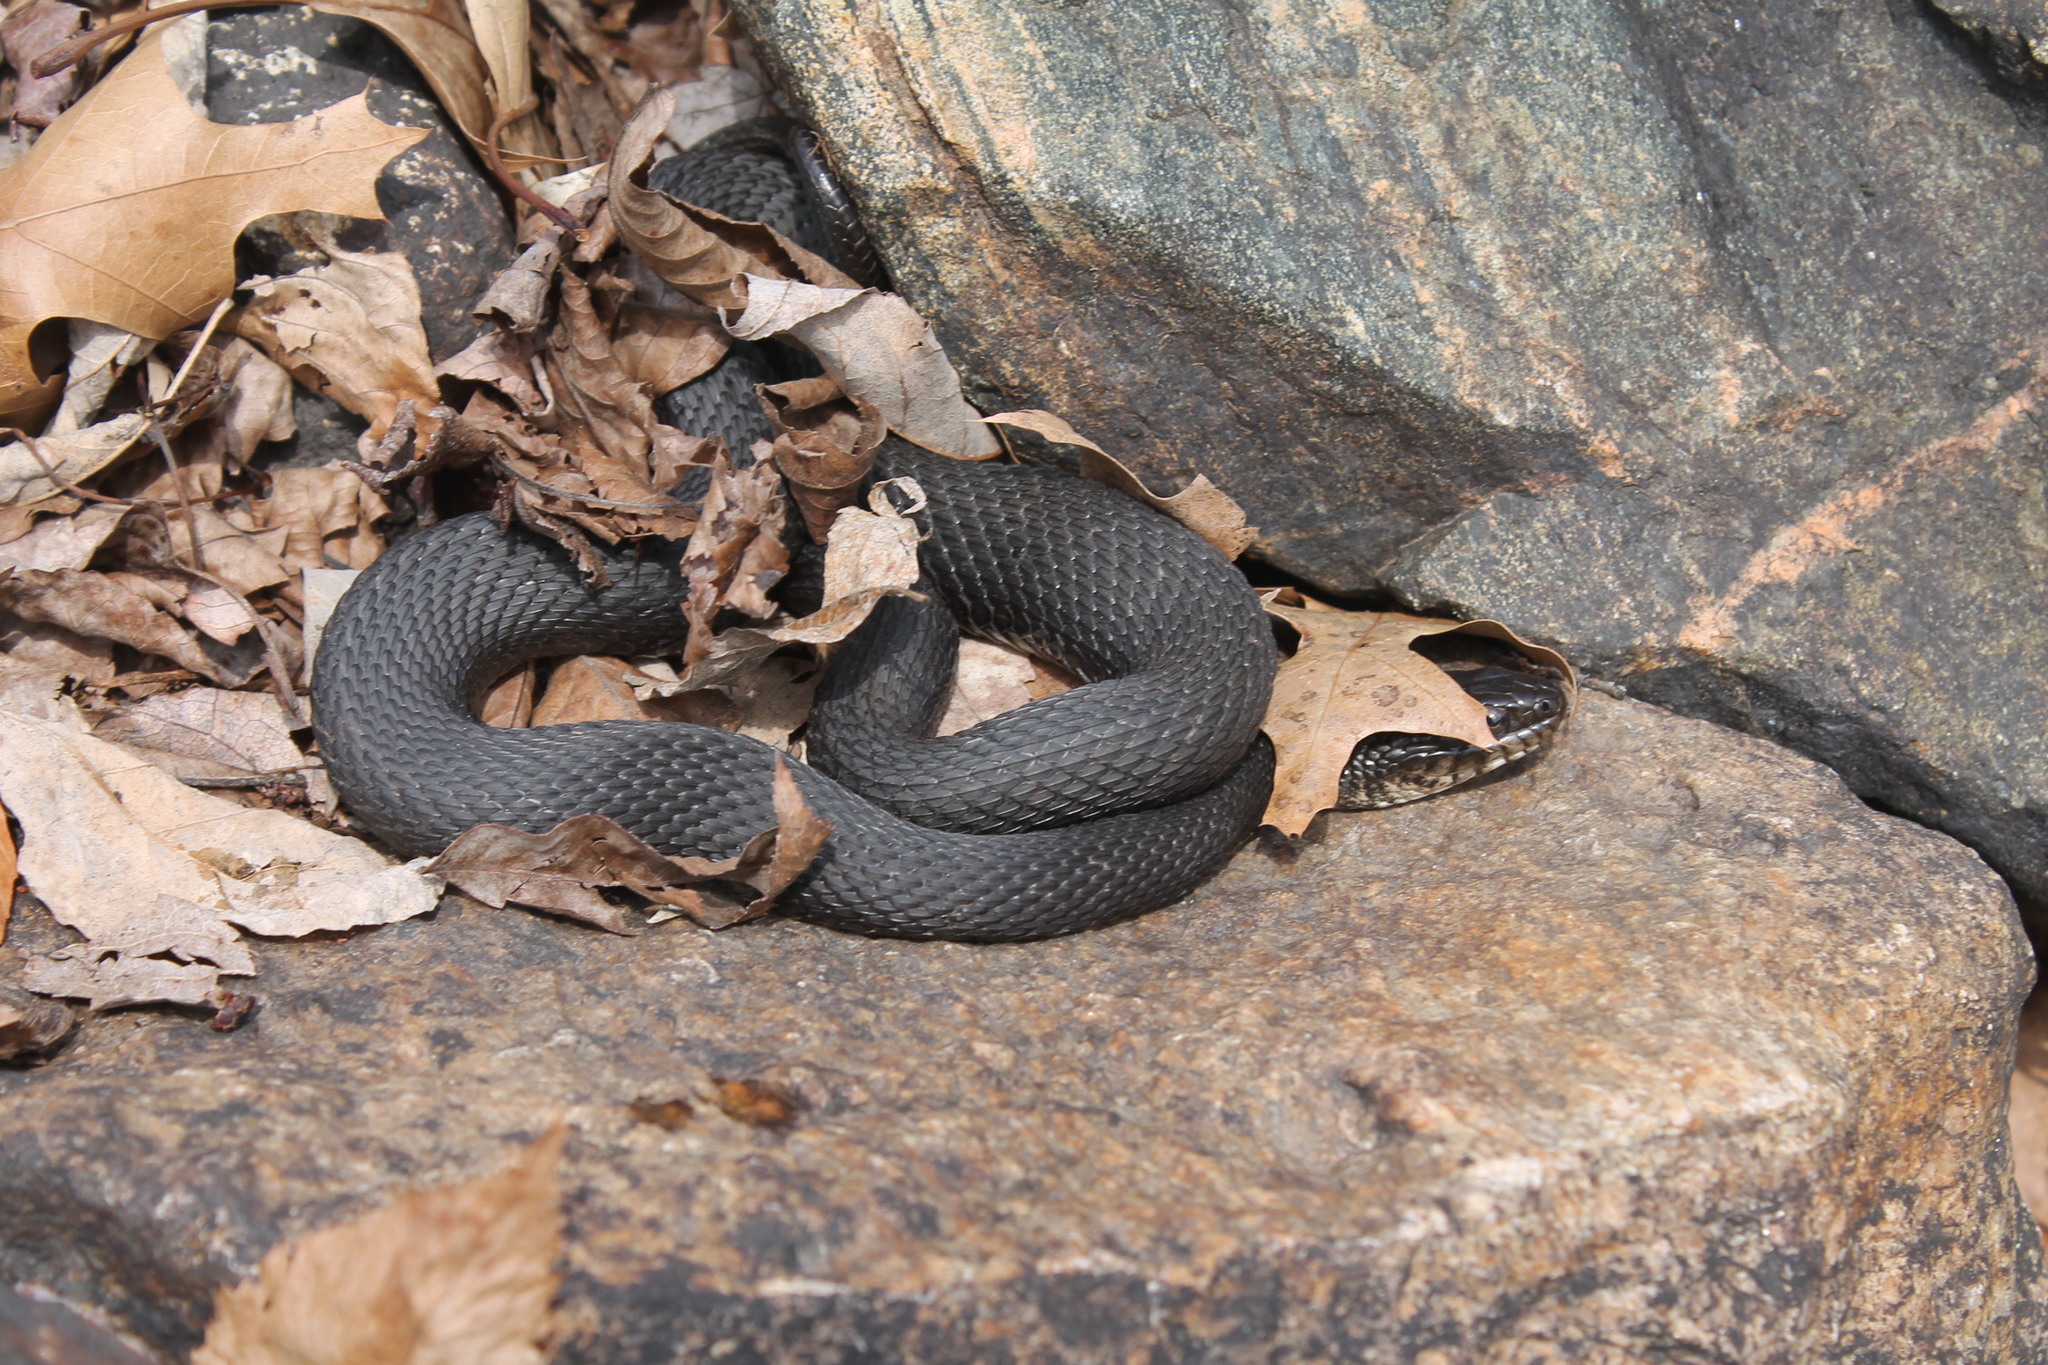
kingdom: Animalia
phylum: Chordata
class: Squamata
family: Colubridae
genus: Nerodia
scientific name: Nerodia sipedon
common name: Northern water snake
